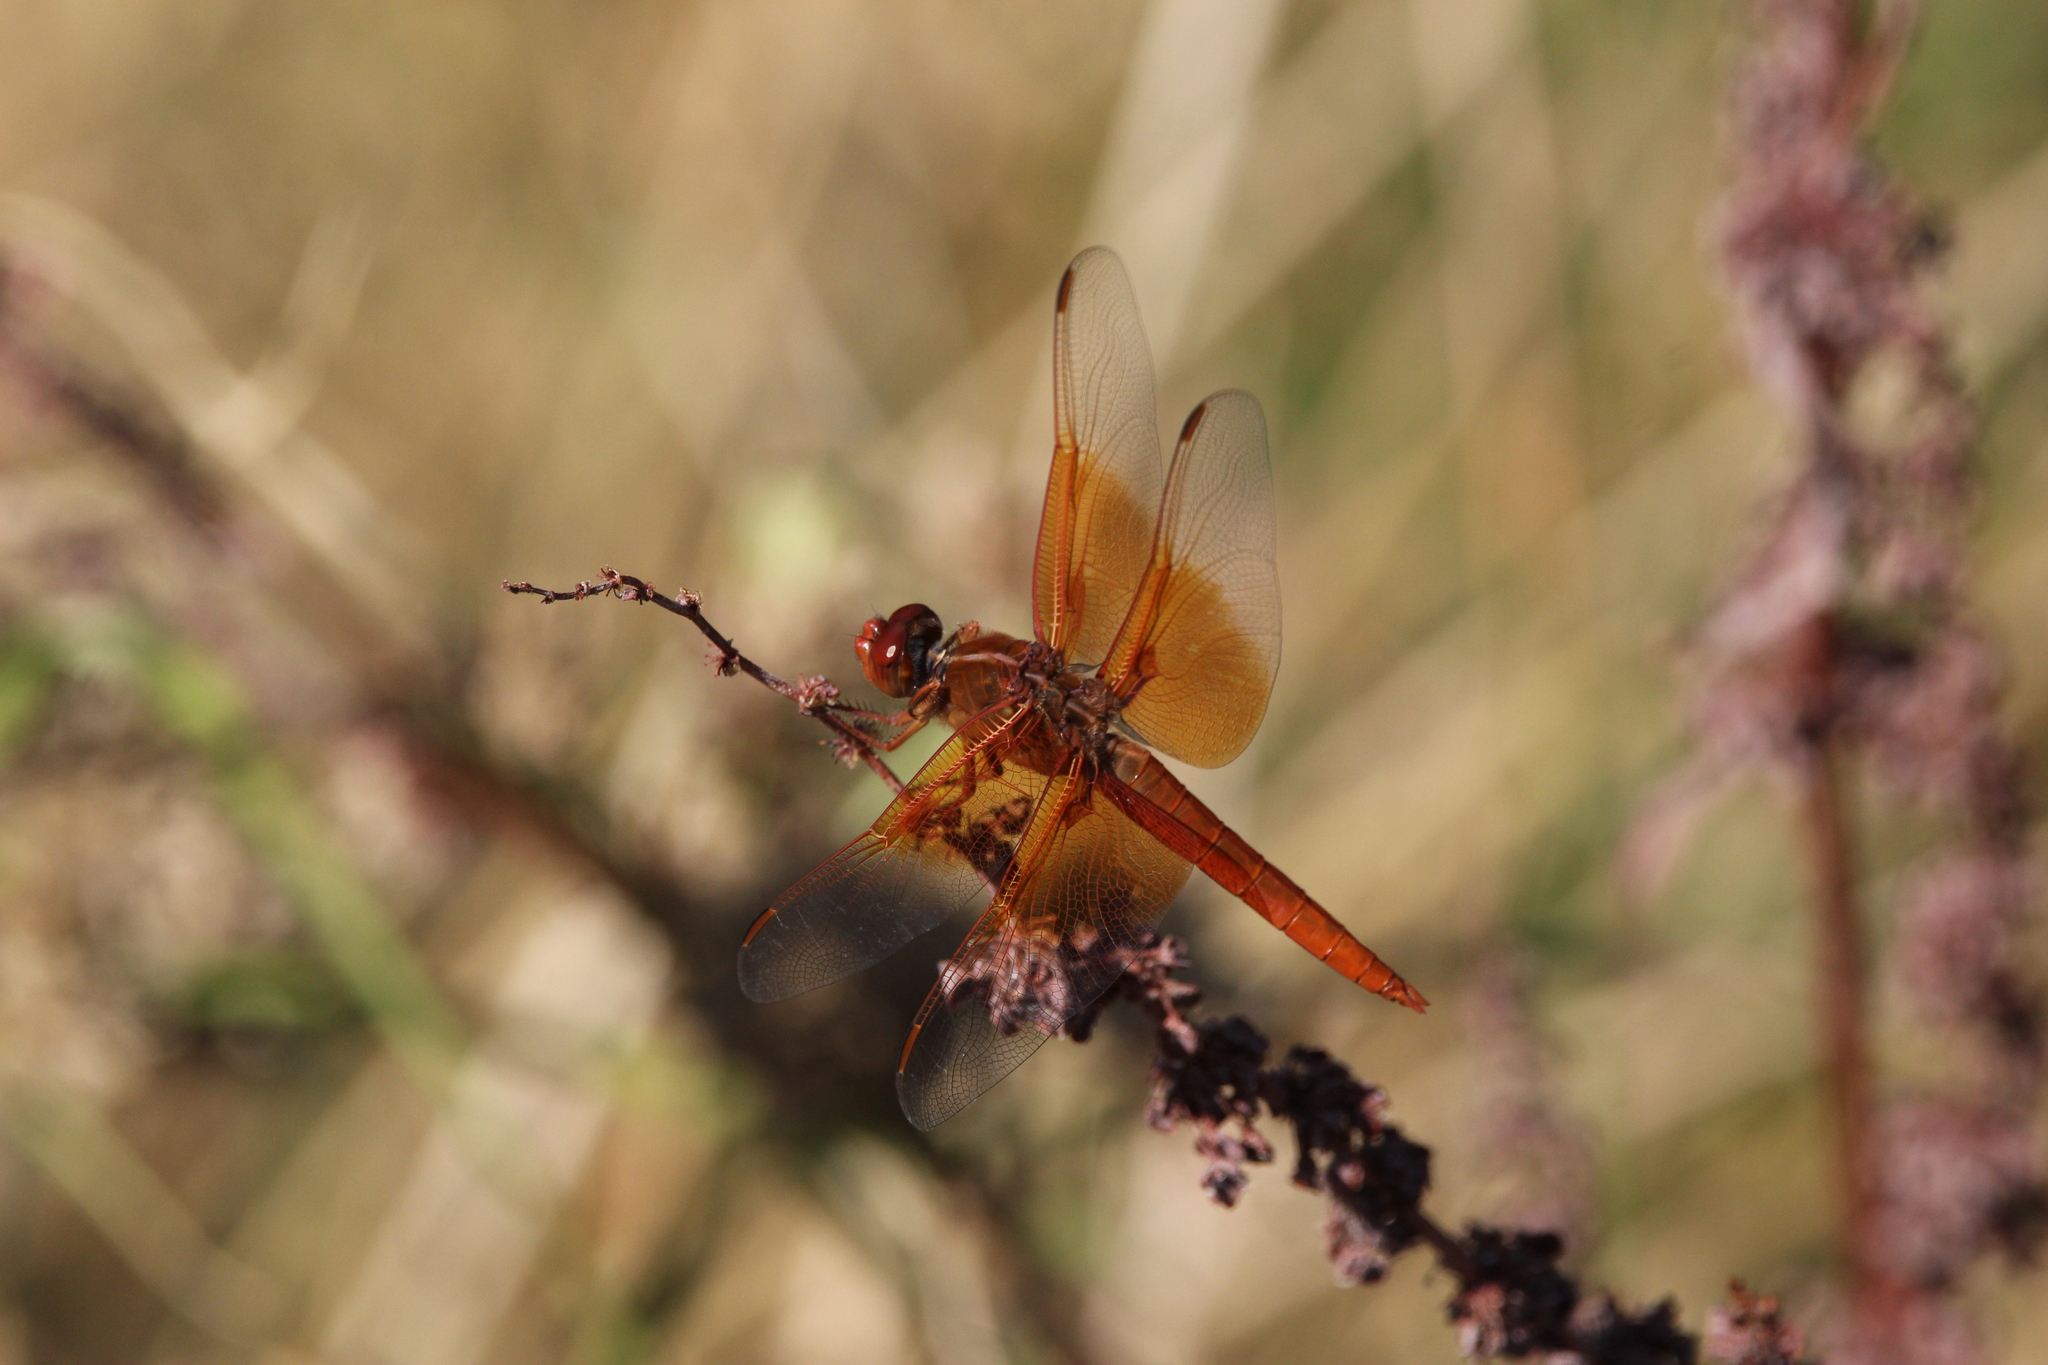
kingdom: Animalia
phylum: Arthropoda
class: Insecta
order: Odonata
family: Libellulidae
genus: Libellula
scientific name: Libellula saturata
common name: Flame skimmer
